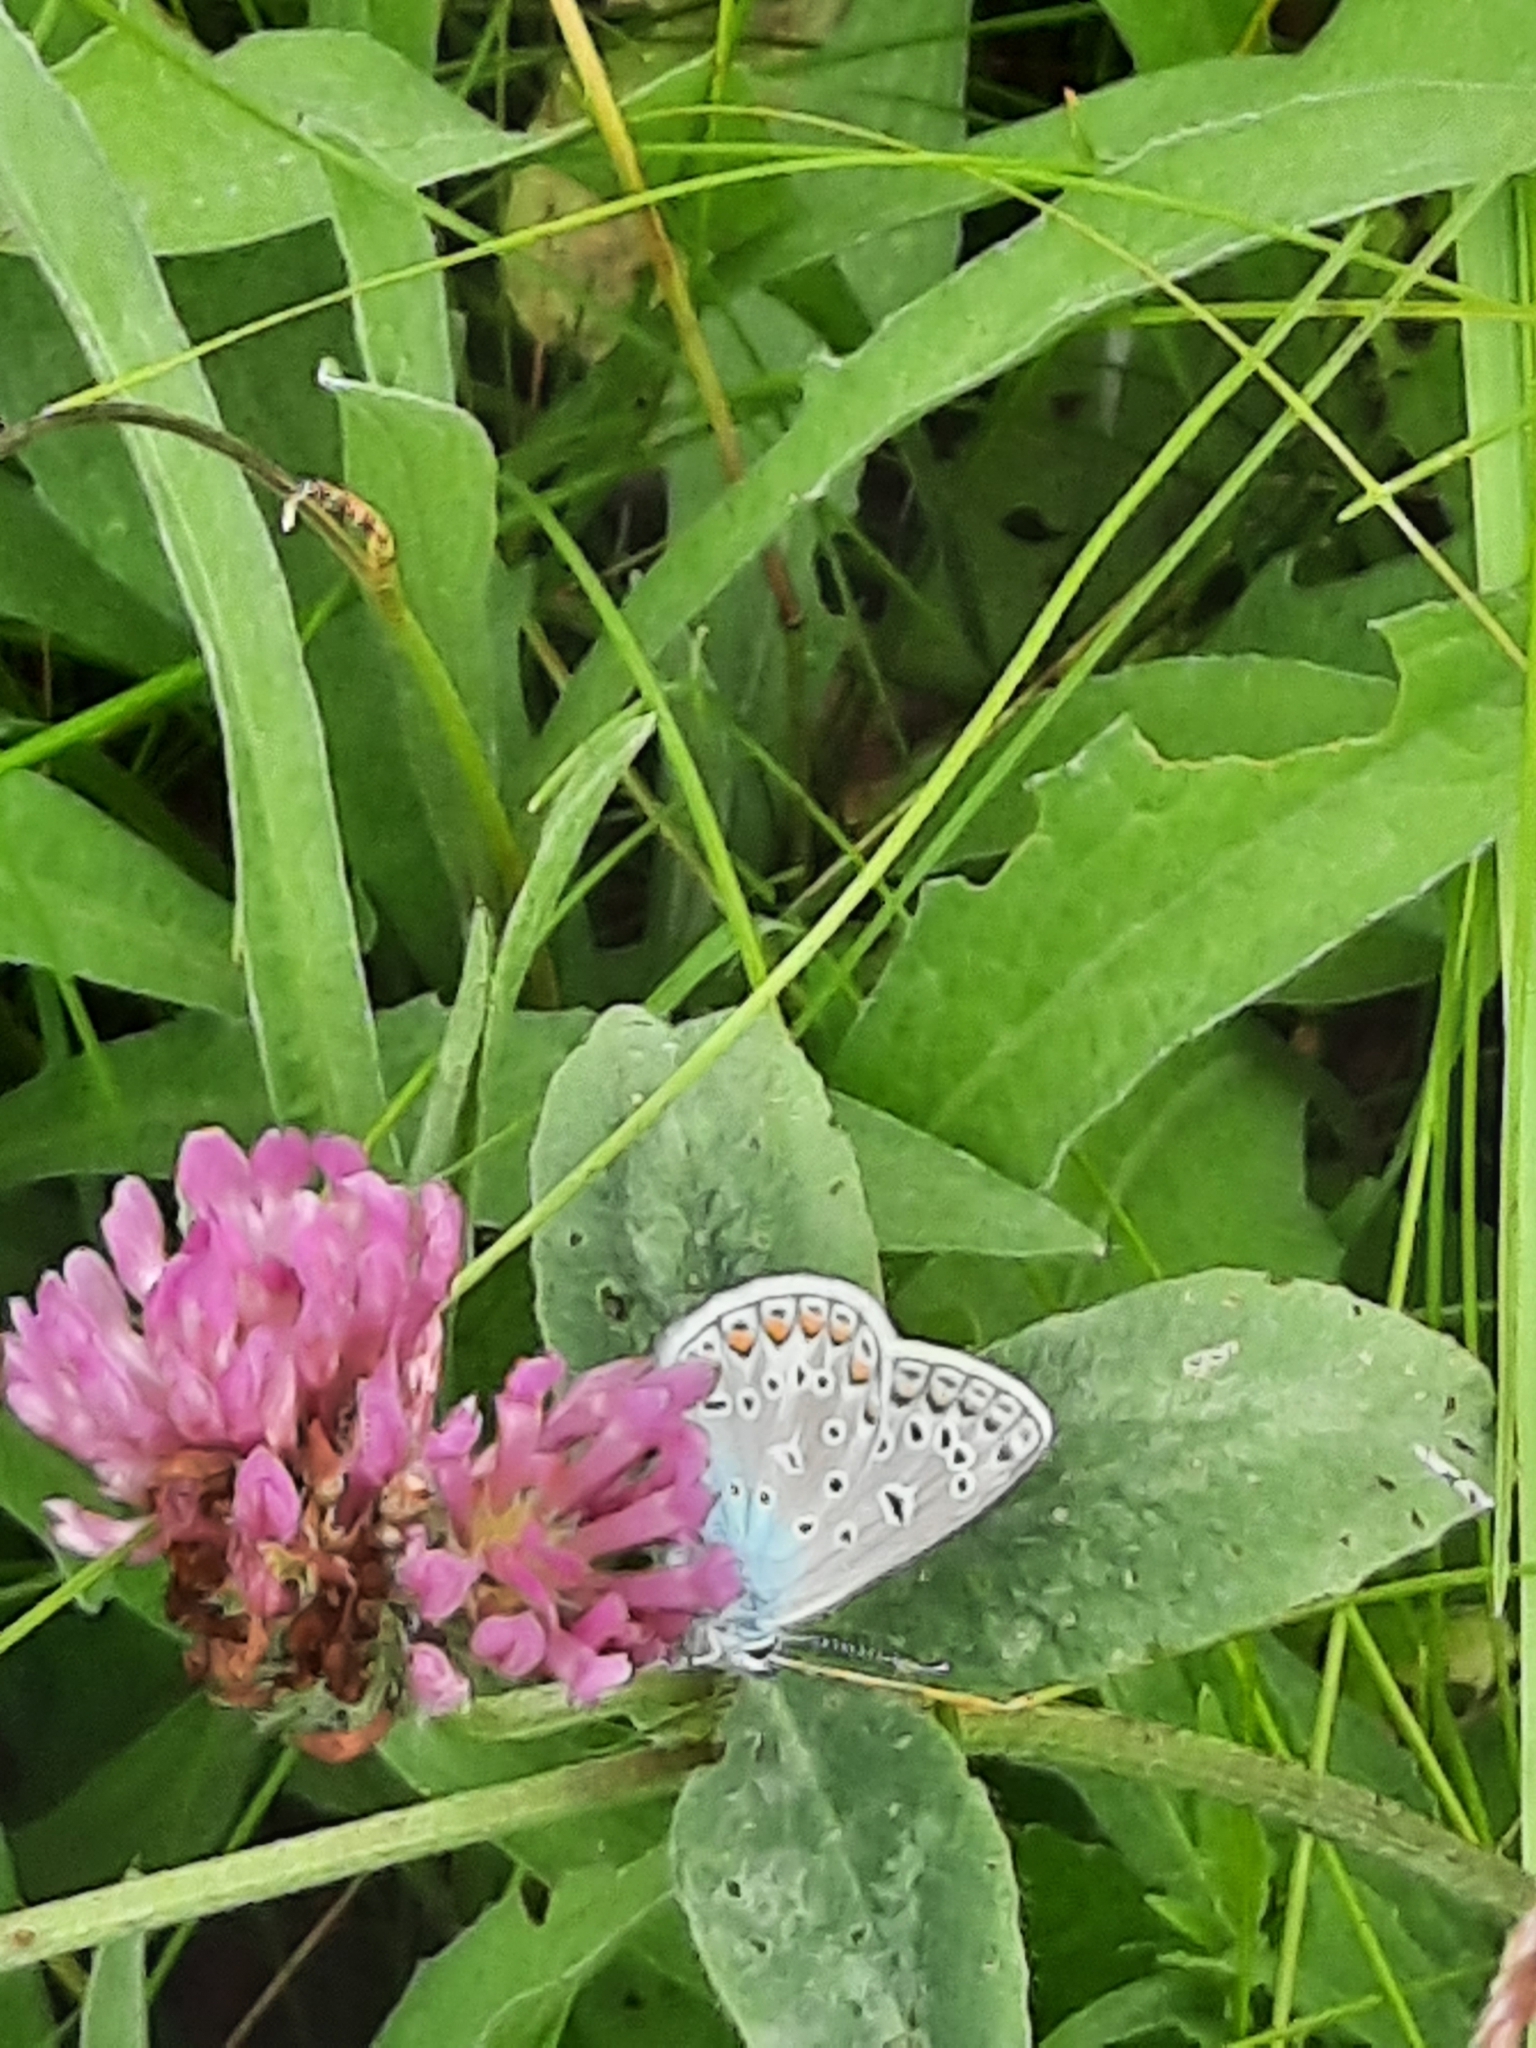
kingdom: Animalia
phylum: Arthropoda
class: Insecta
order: Lepidoptera
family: Lycaenidae
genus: Polyommatus
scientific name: Polyommatus icarus
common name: Common blue
